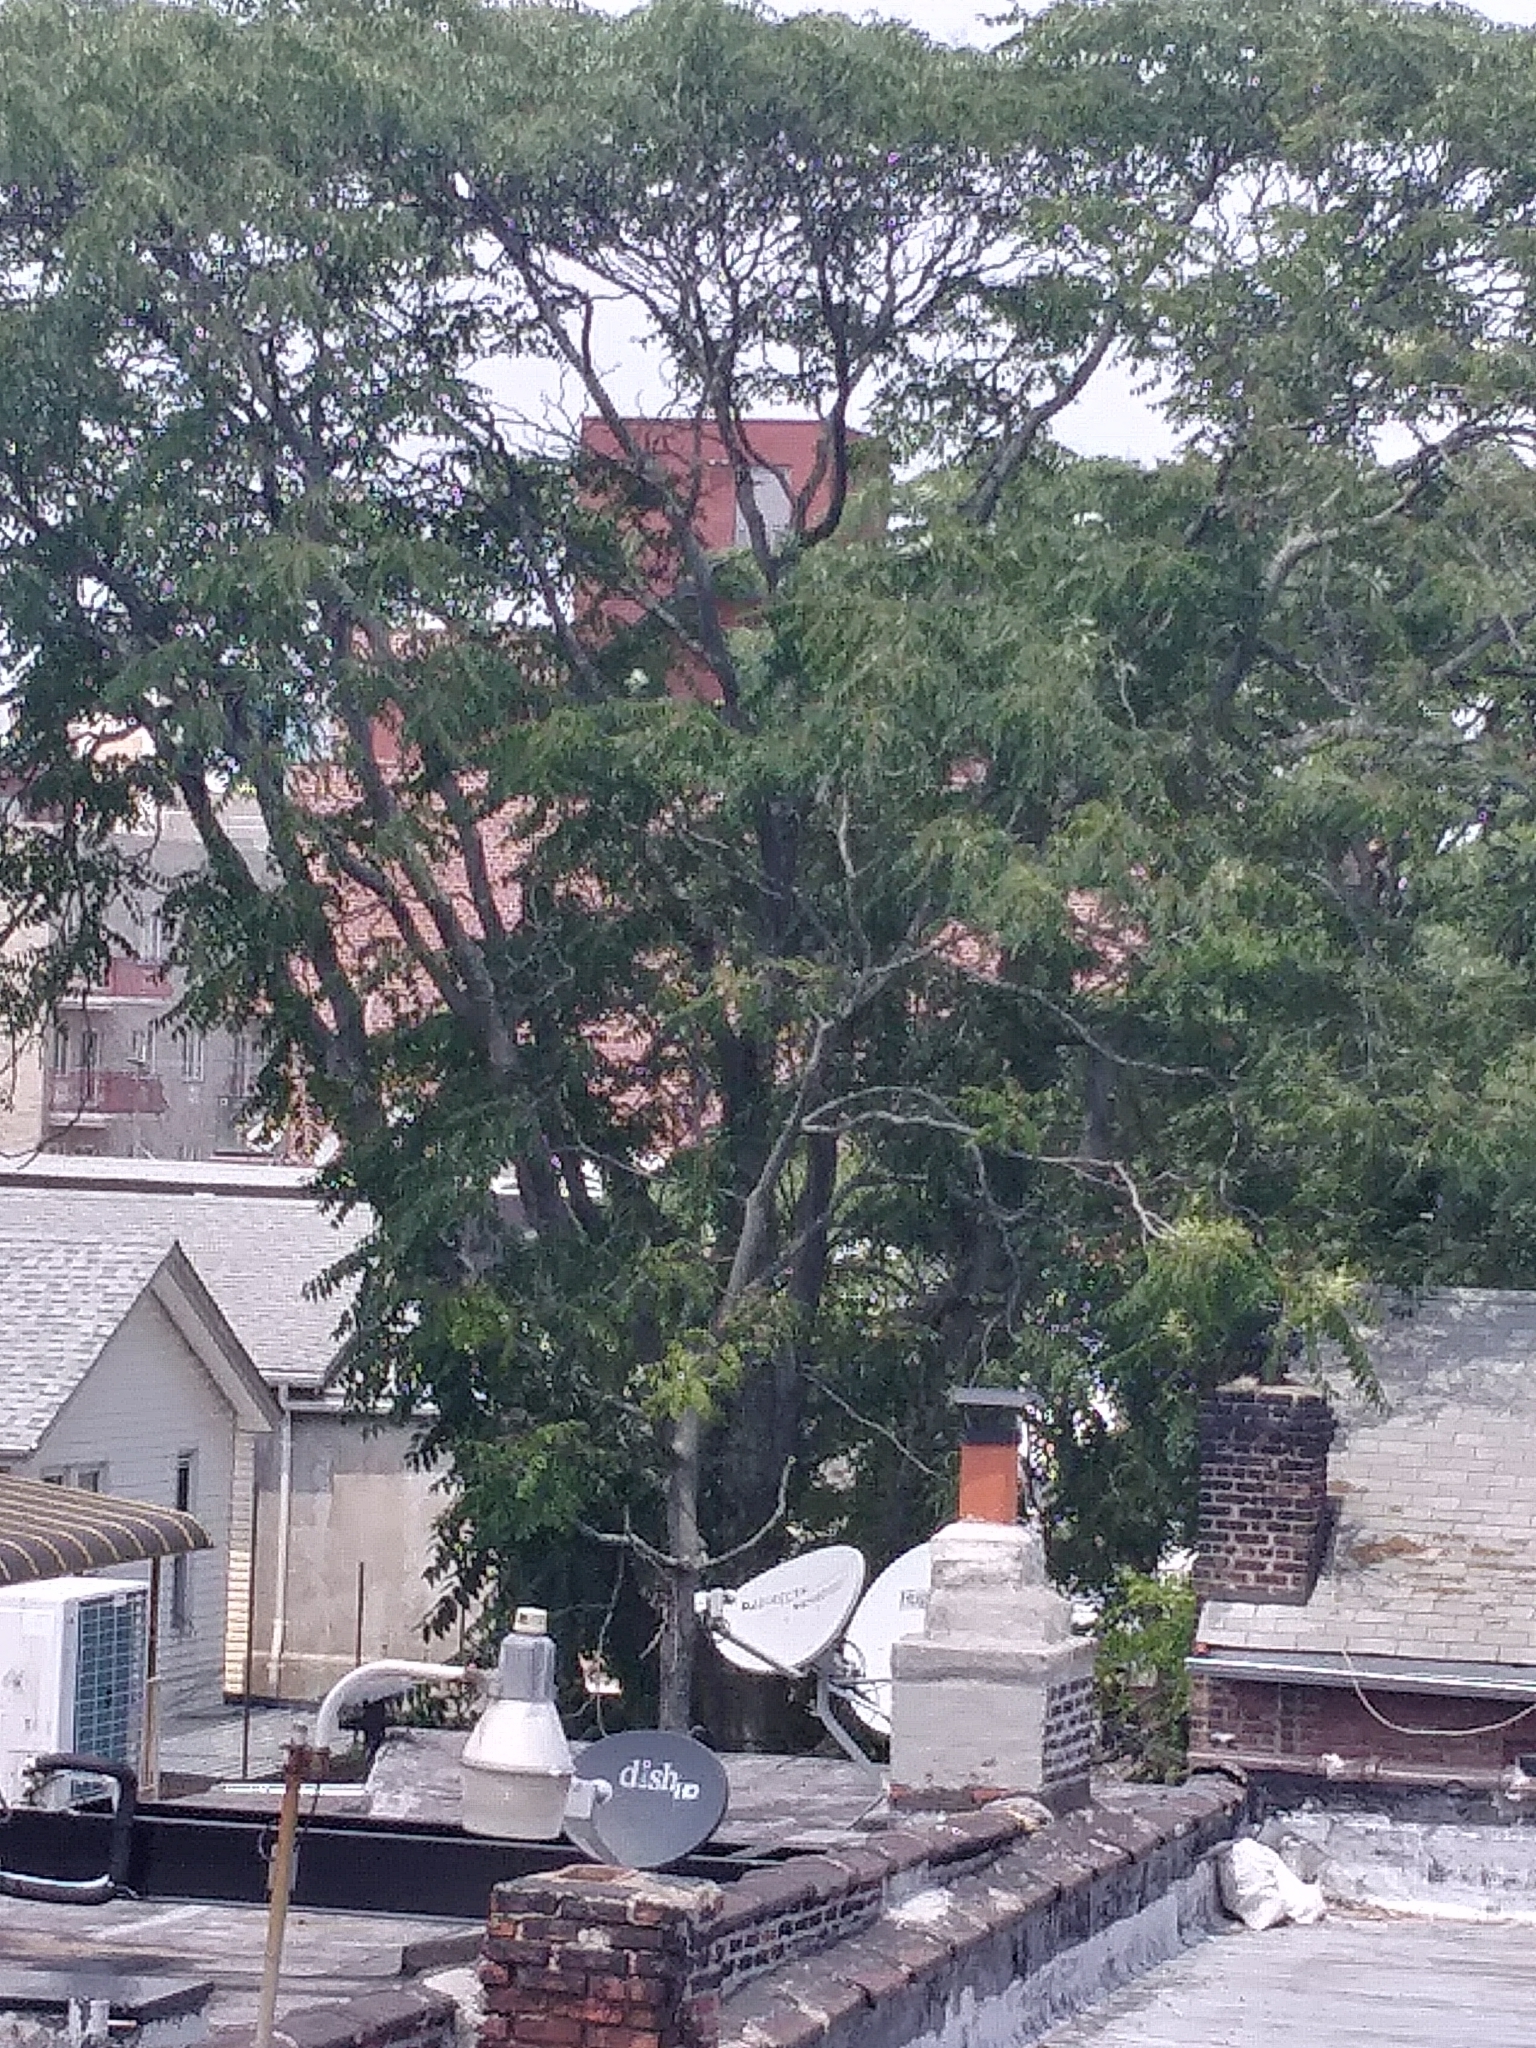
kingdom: Plantae
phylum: Tracheophyta
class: Magnoliopsida
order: Sapindales
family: Simaroubaceae
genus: Ailanthus
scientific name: Ailanthus altissima
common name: Tree-of-heaven
